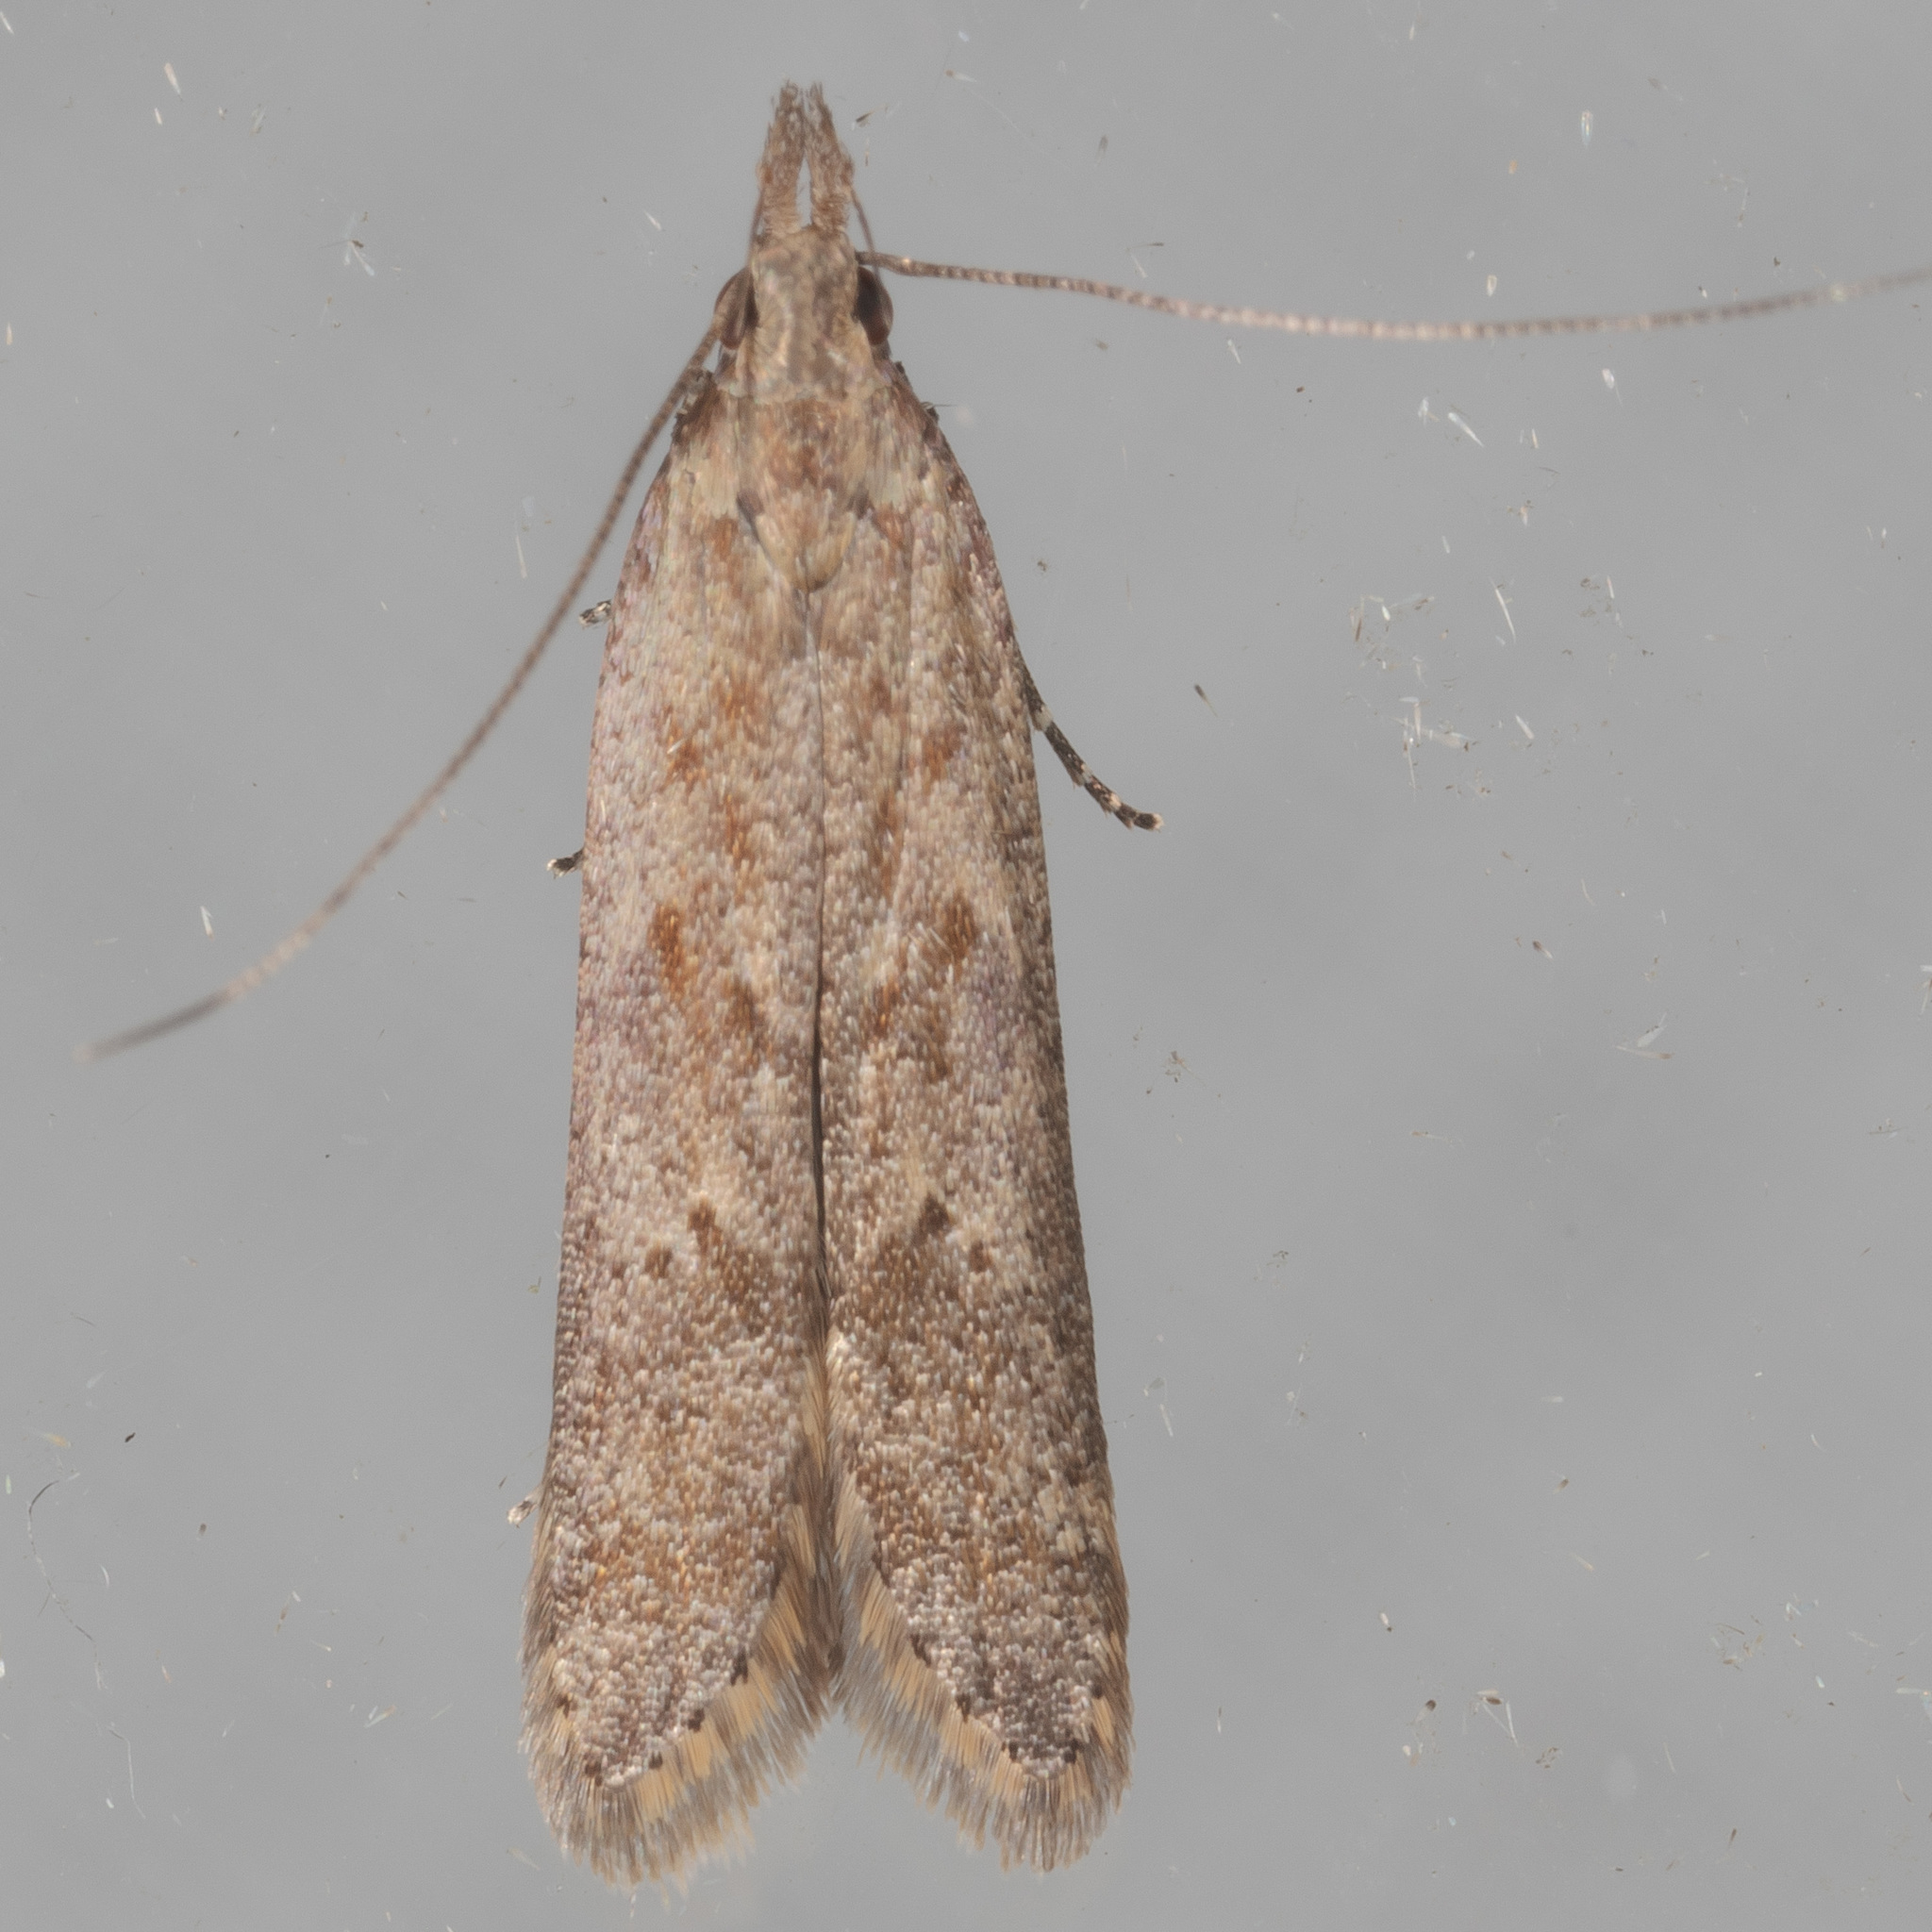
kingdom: Animalia
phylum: Arthropoda
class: Insecta
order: Lepidoptera
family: Gelechiidae
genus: Dichomeris
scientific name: Dichomeris ligulella
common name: Moth
